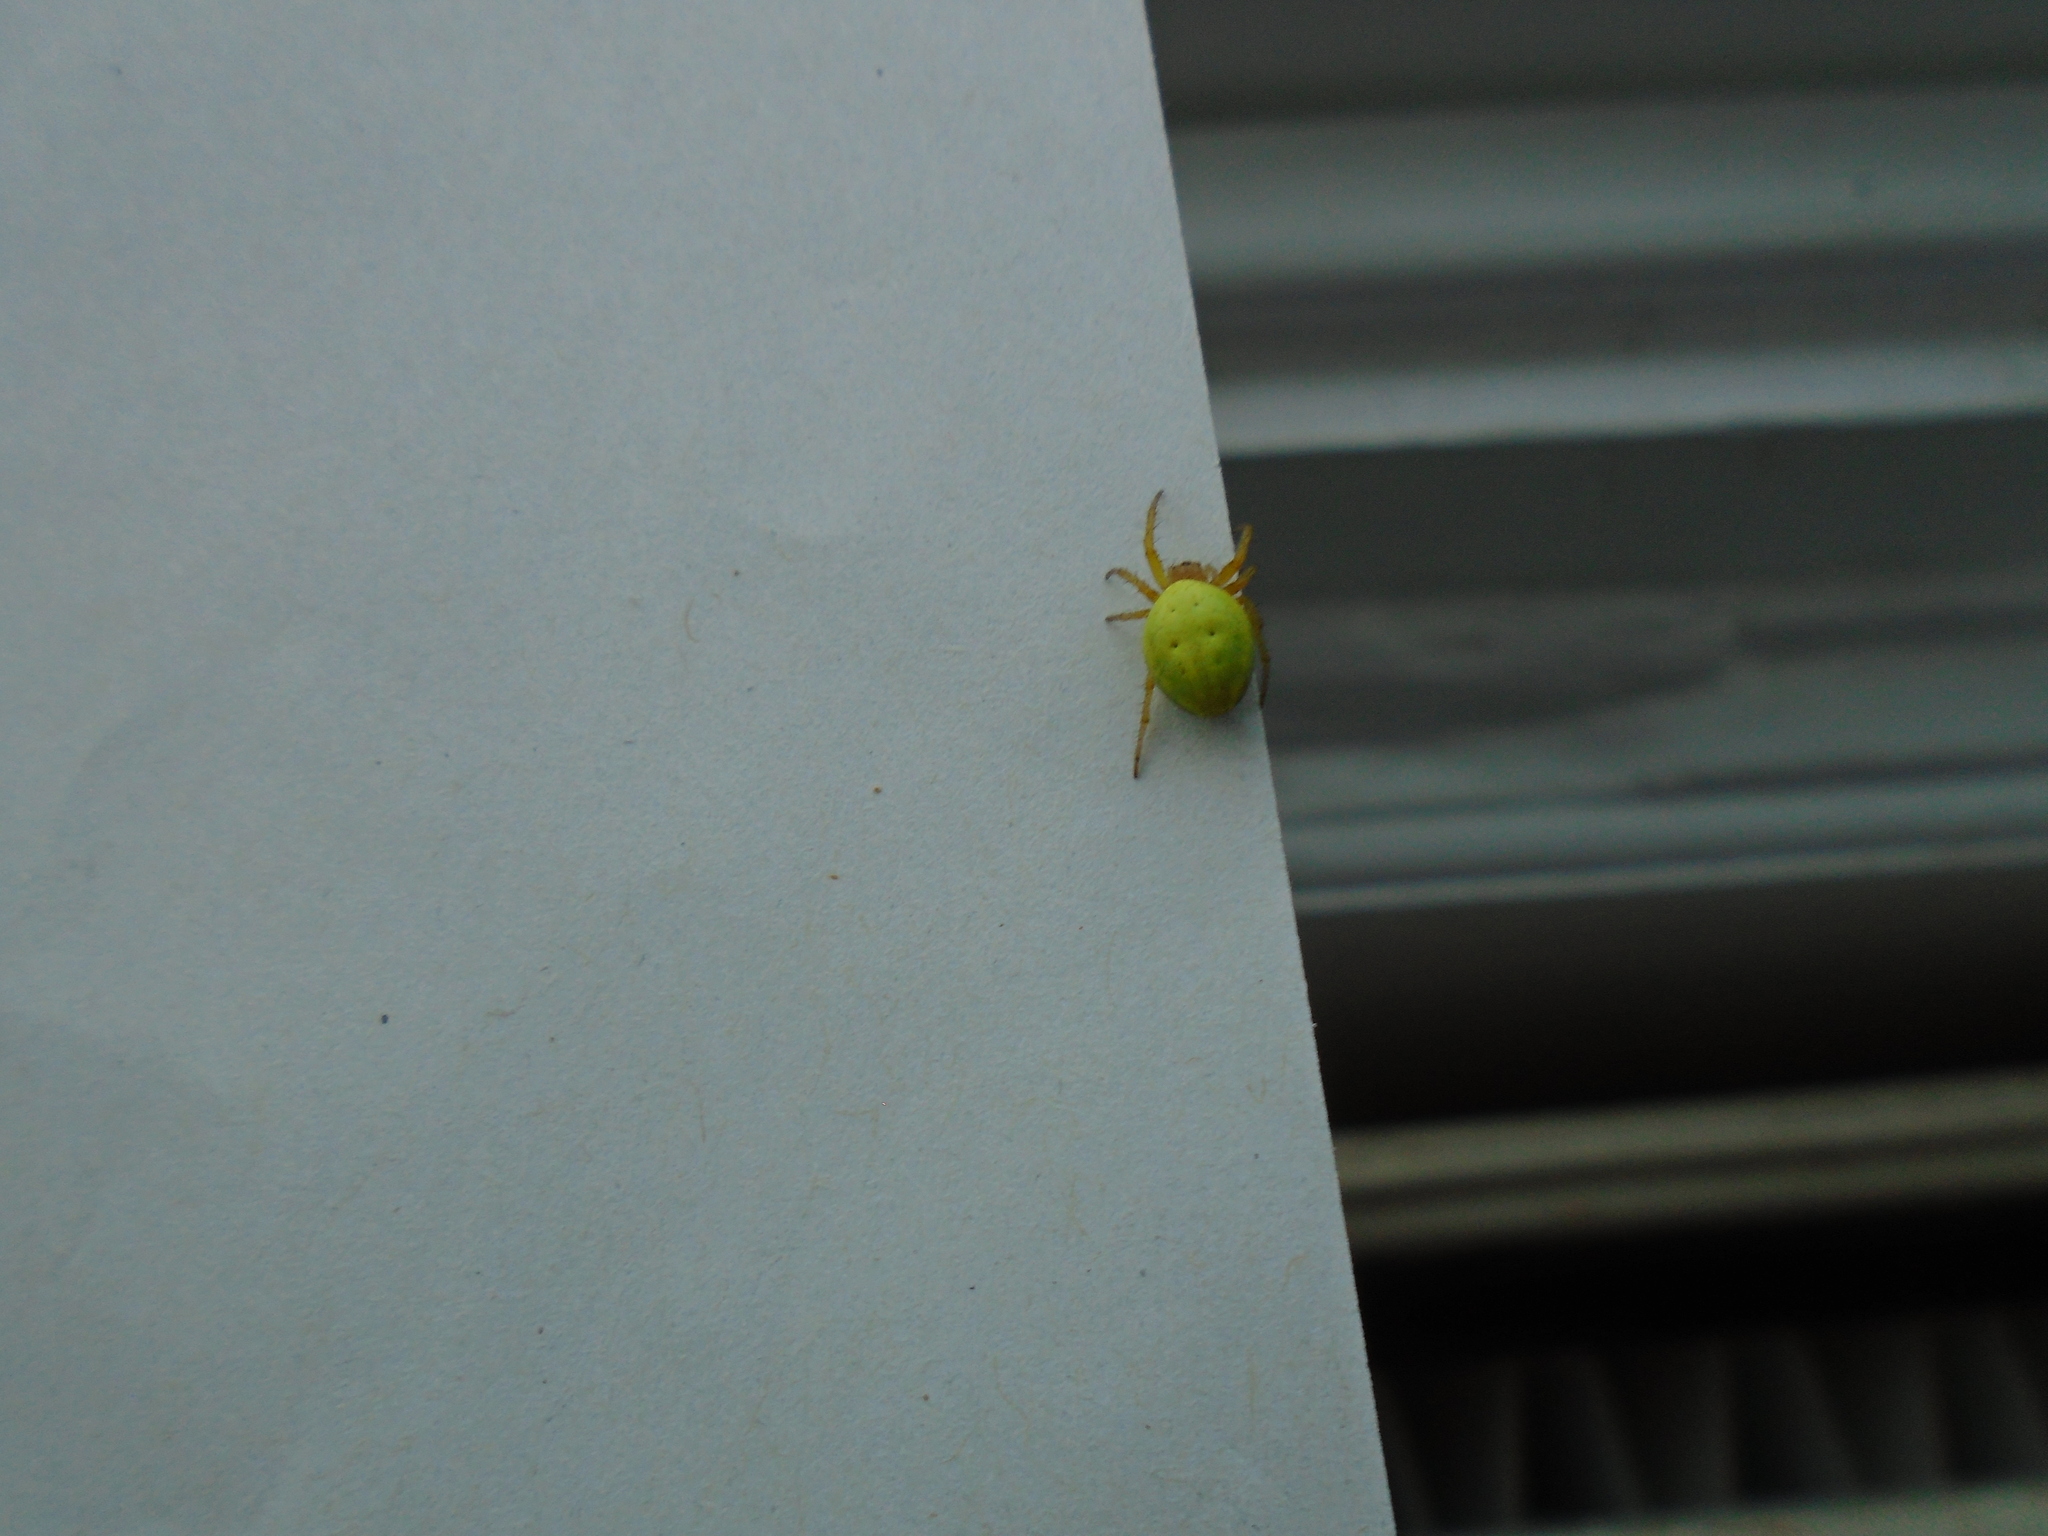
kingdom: Animalia
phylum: Arthropoda
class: Arachnida
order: Araneae
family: Araneidae
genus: Araniella
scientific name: Araniella cucurbitina
